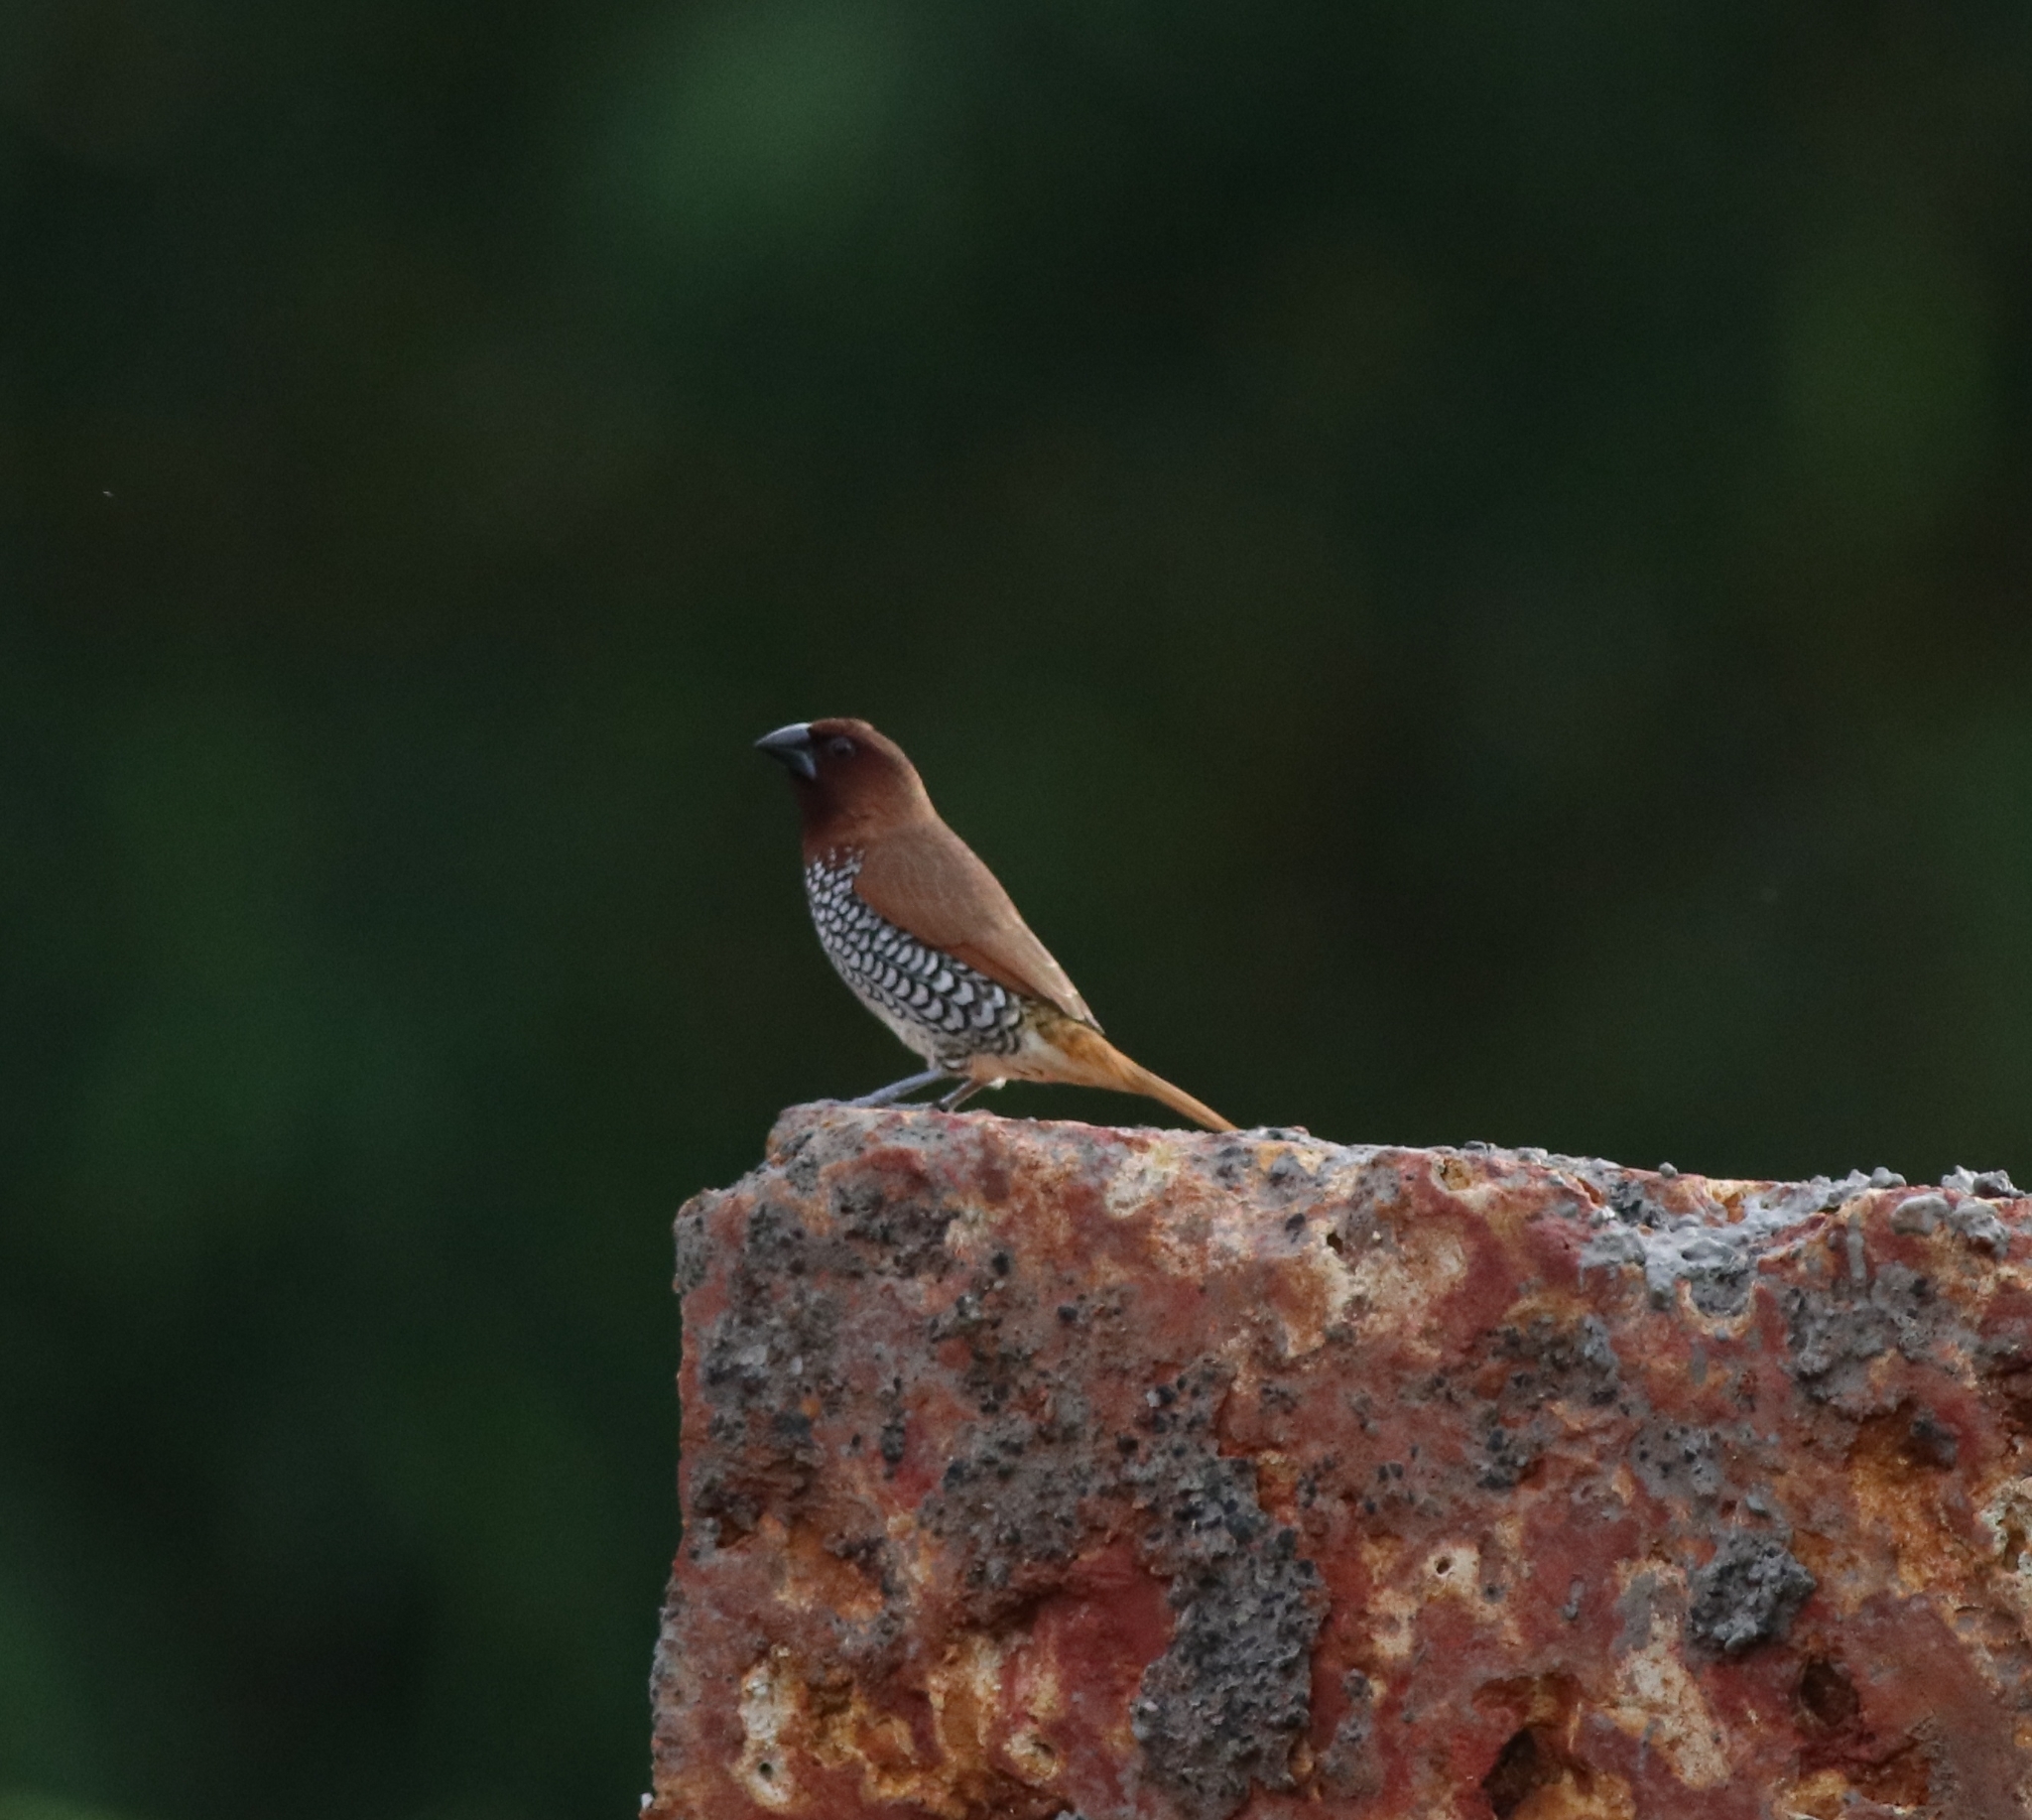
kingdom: Animalia
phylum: Chordata
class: Aves
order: Passeriformes
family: Estrildidae
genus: Lonchura
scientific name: Lonchura punctulata
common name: Scaly-breasted munia
